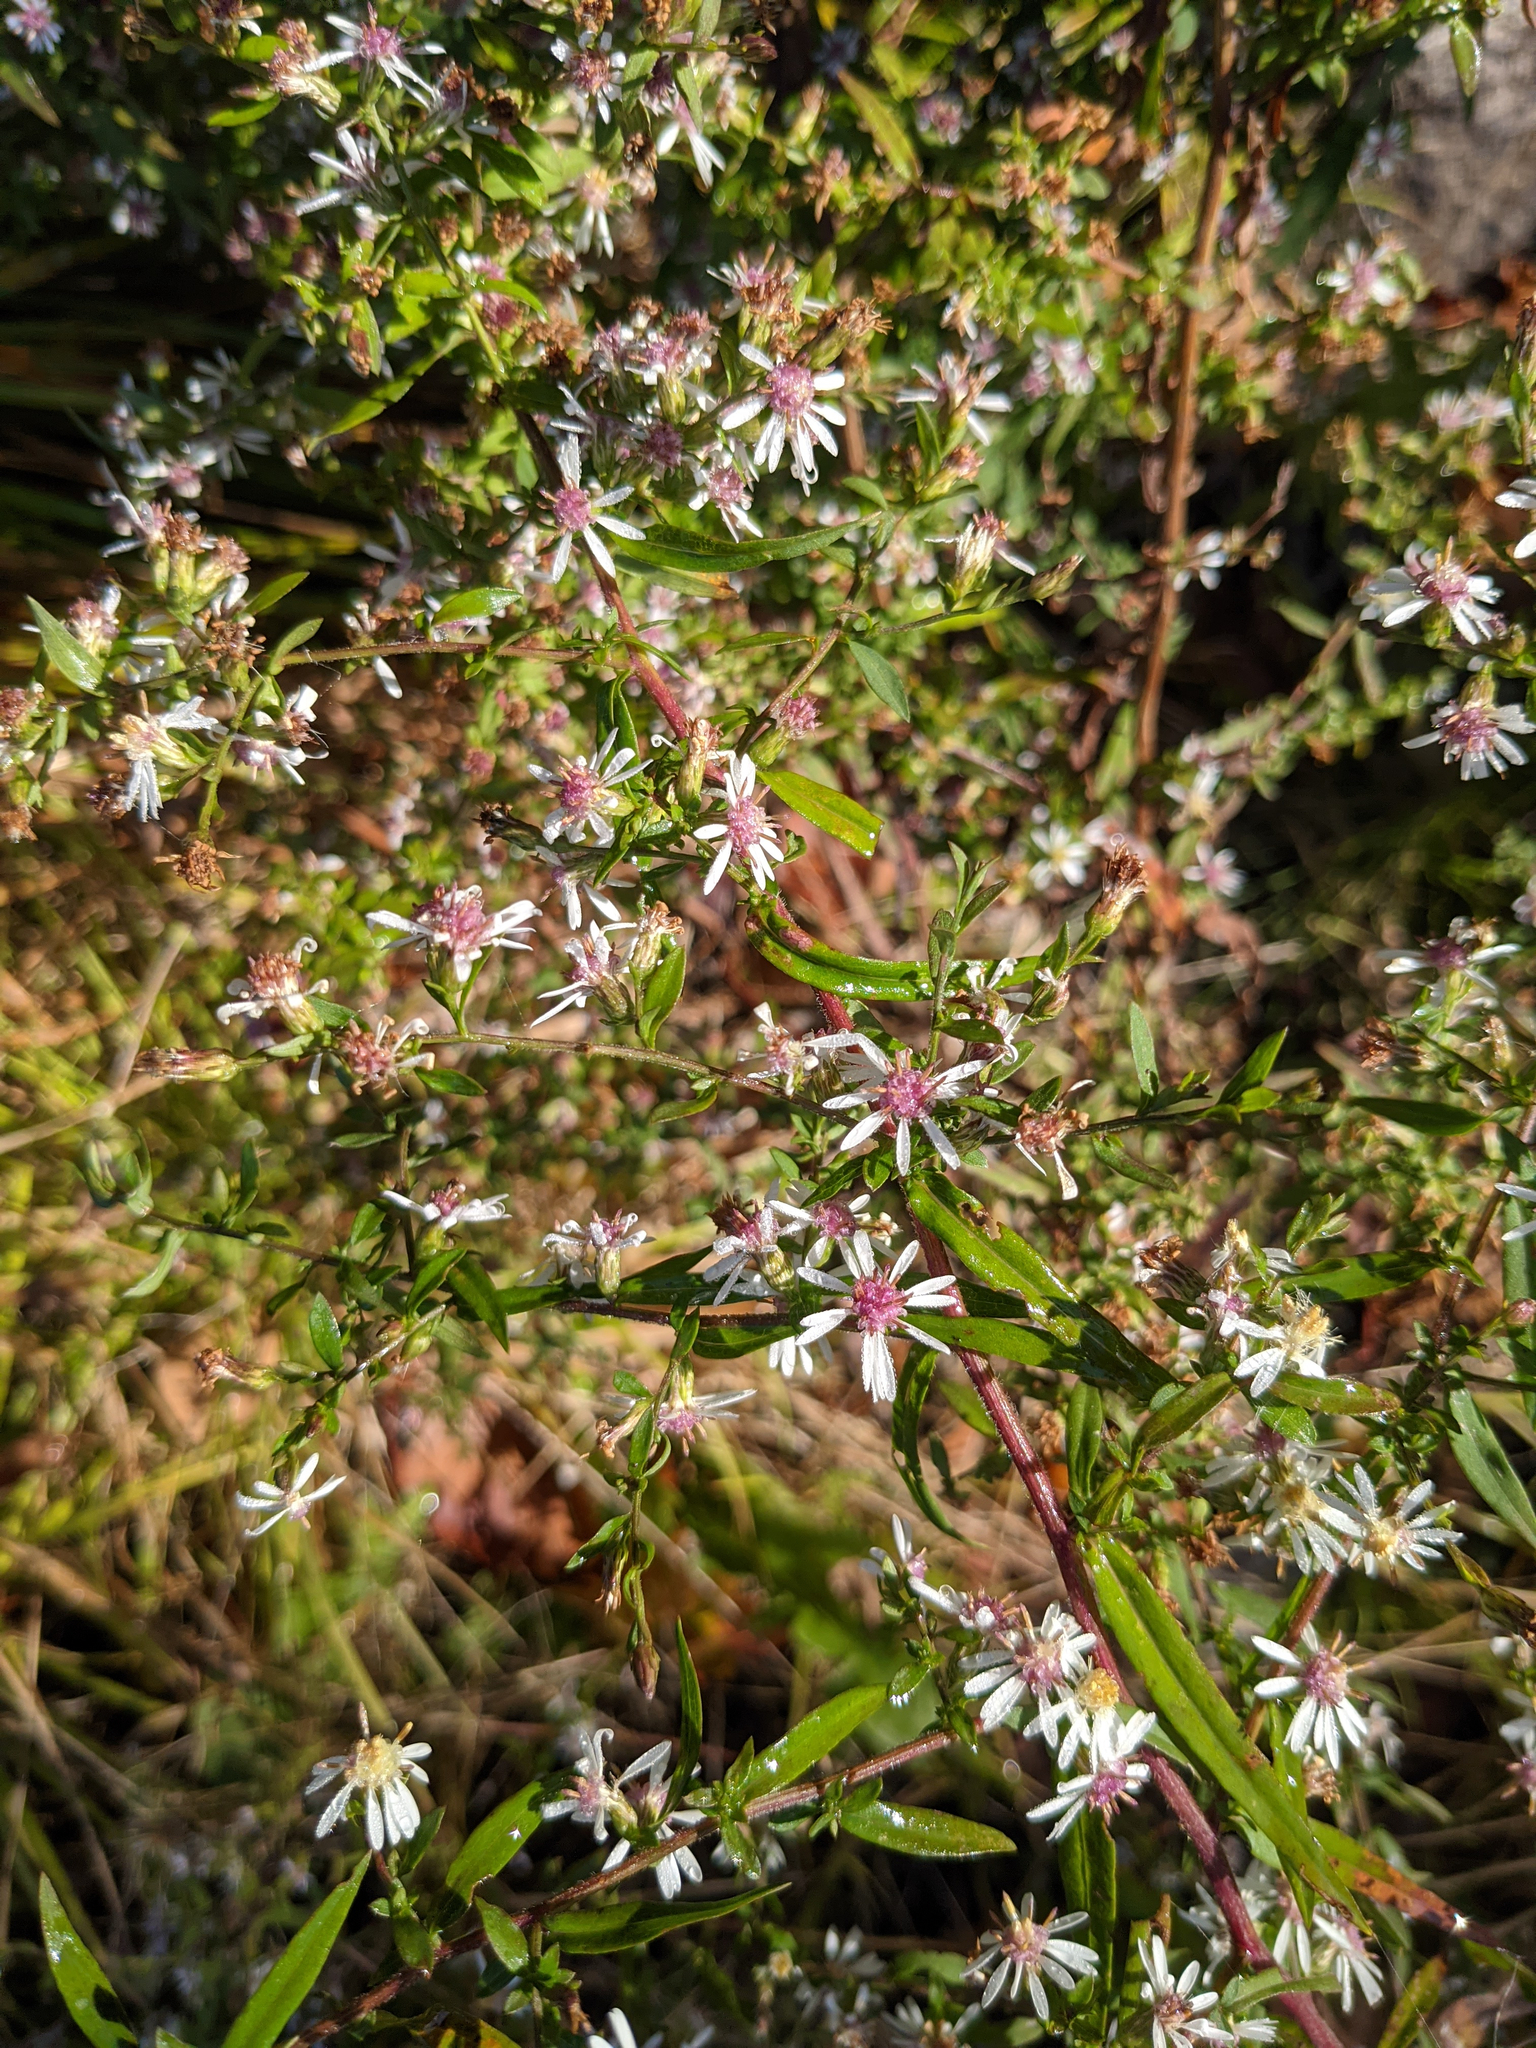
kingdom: Plantae
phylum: Tracheophyta
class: Magnoliopsida
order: Asterales
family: Asteraceae
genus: Symphyotrichum
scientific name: Symphyotrichum lateriflorum
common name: Calico aster
